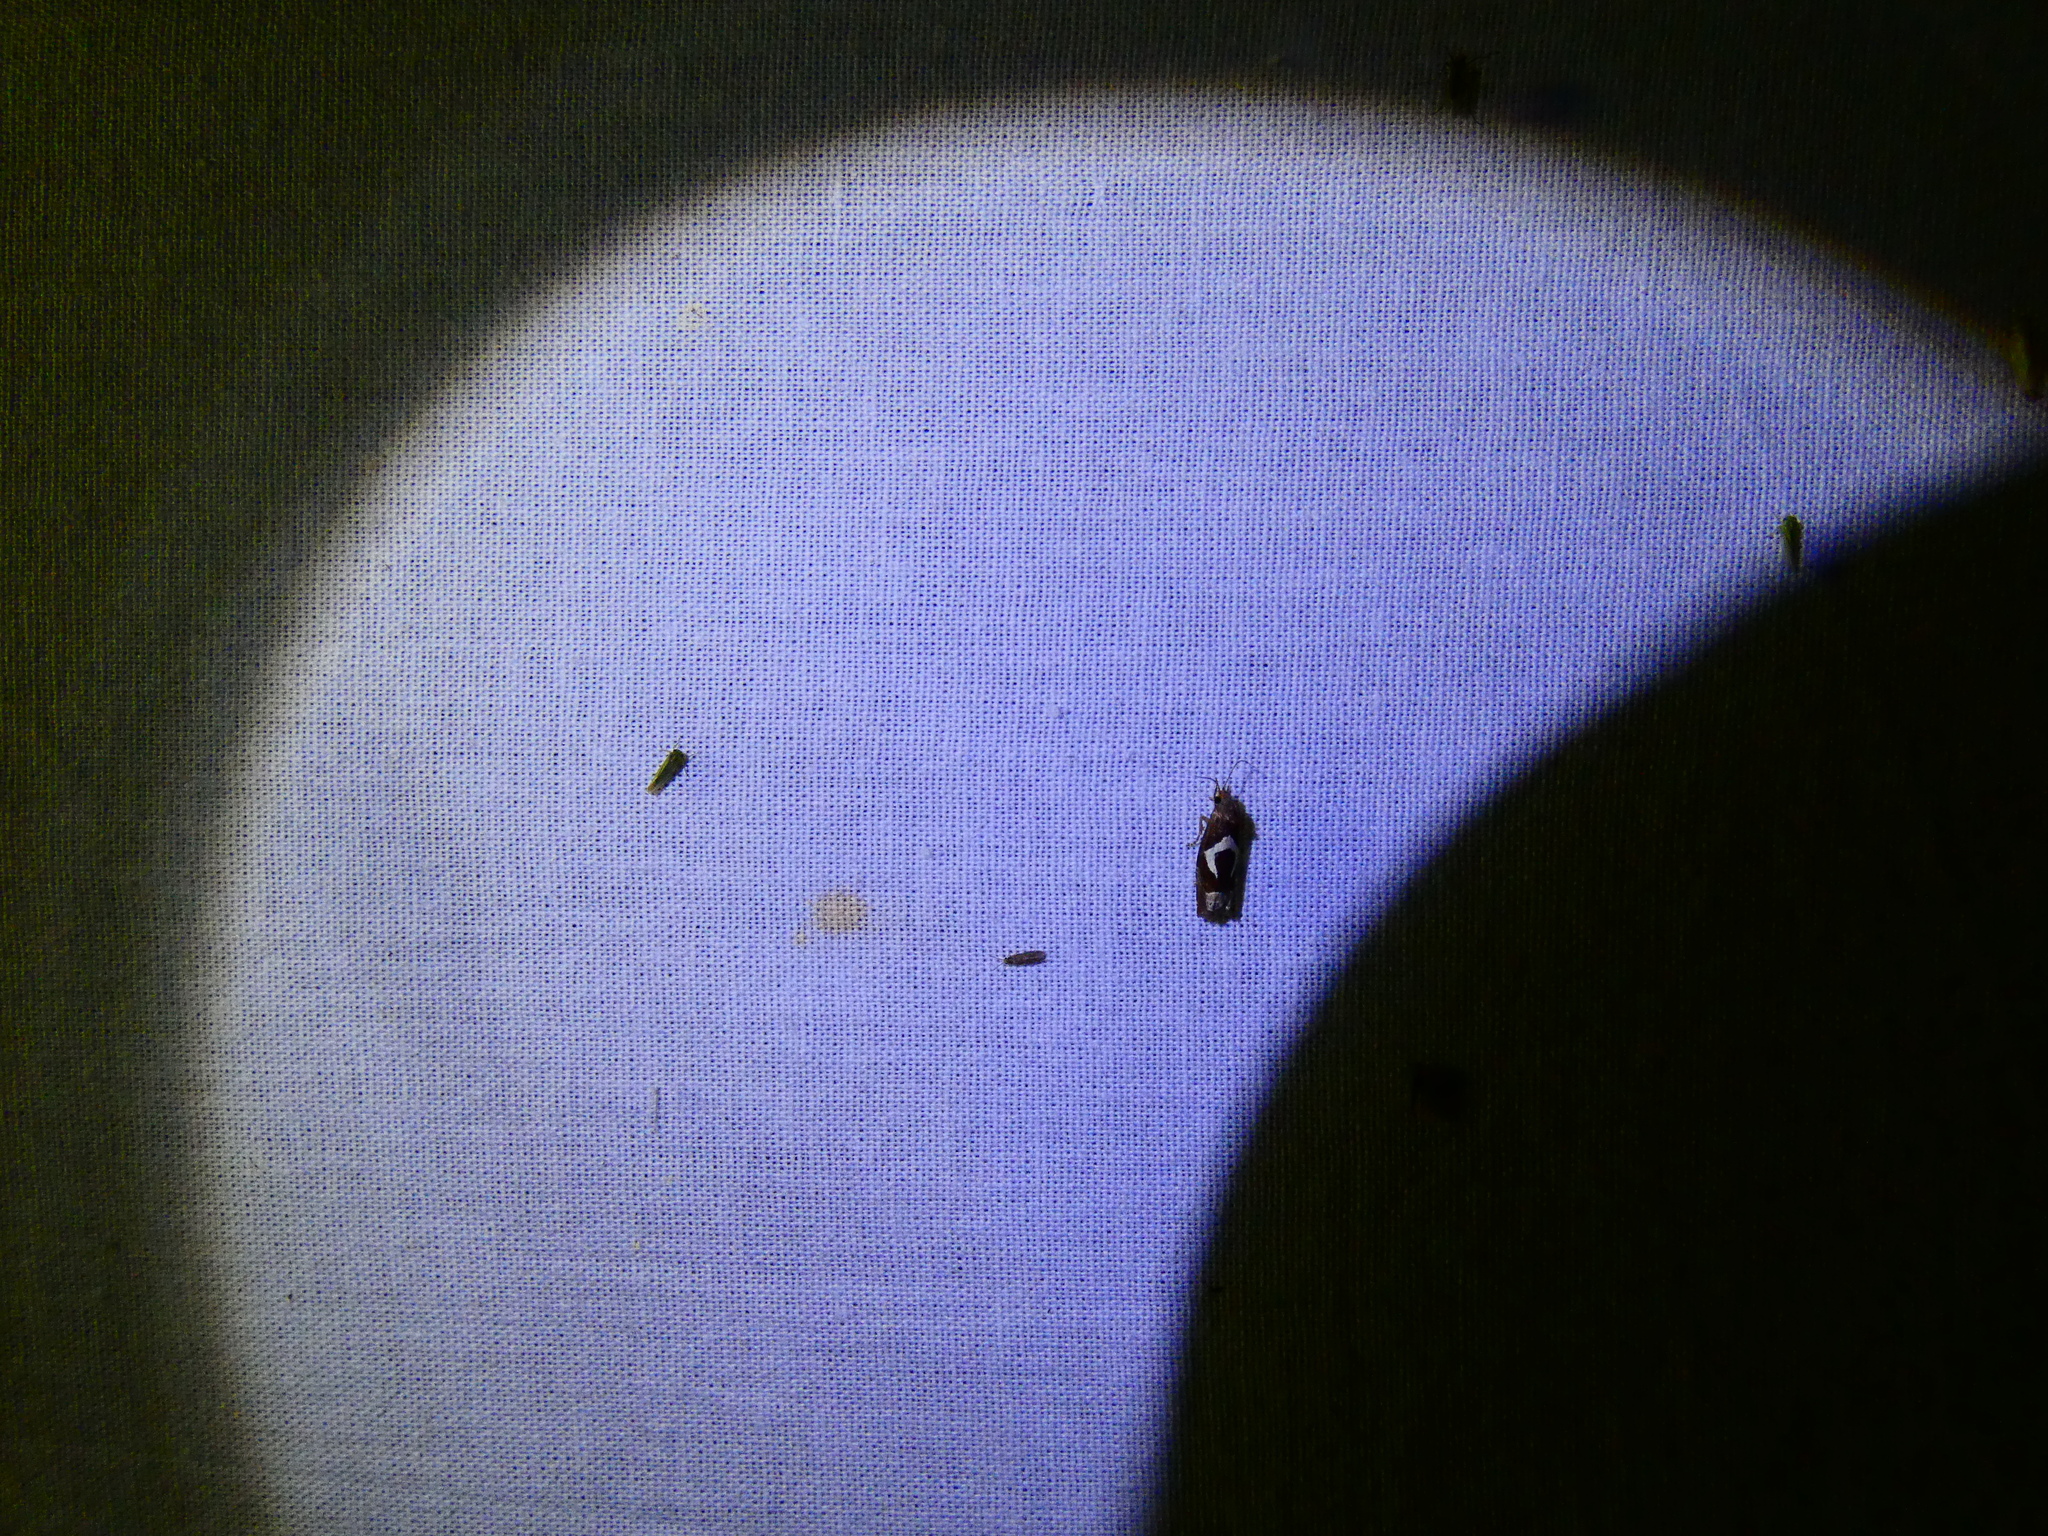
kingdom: Animalia
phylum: Arthropoda
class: Insecta
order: Lepidoptera
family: Tortricidae
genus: Epiblema
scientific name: Epiblema foenella
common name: White-foot bell
